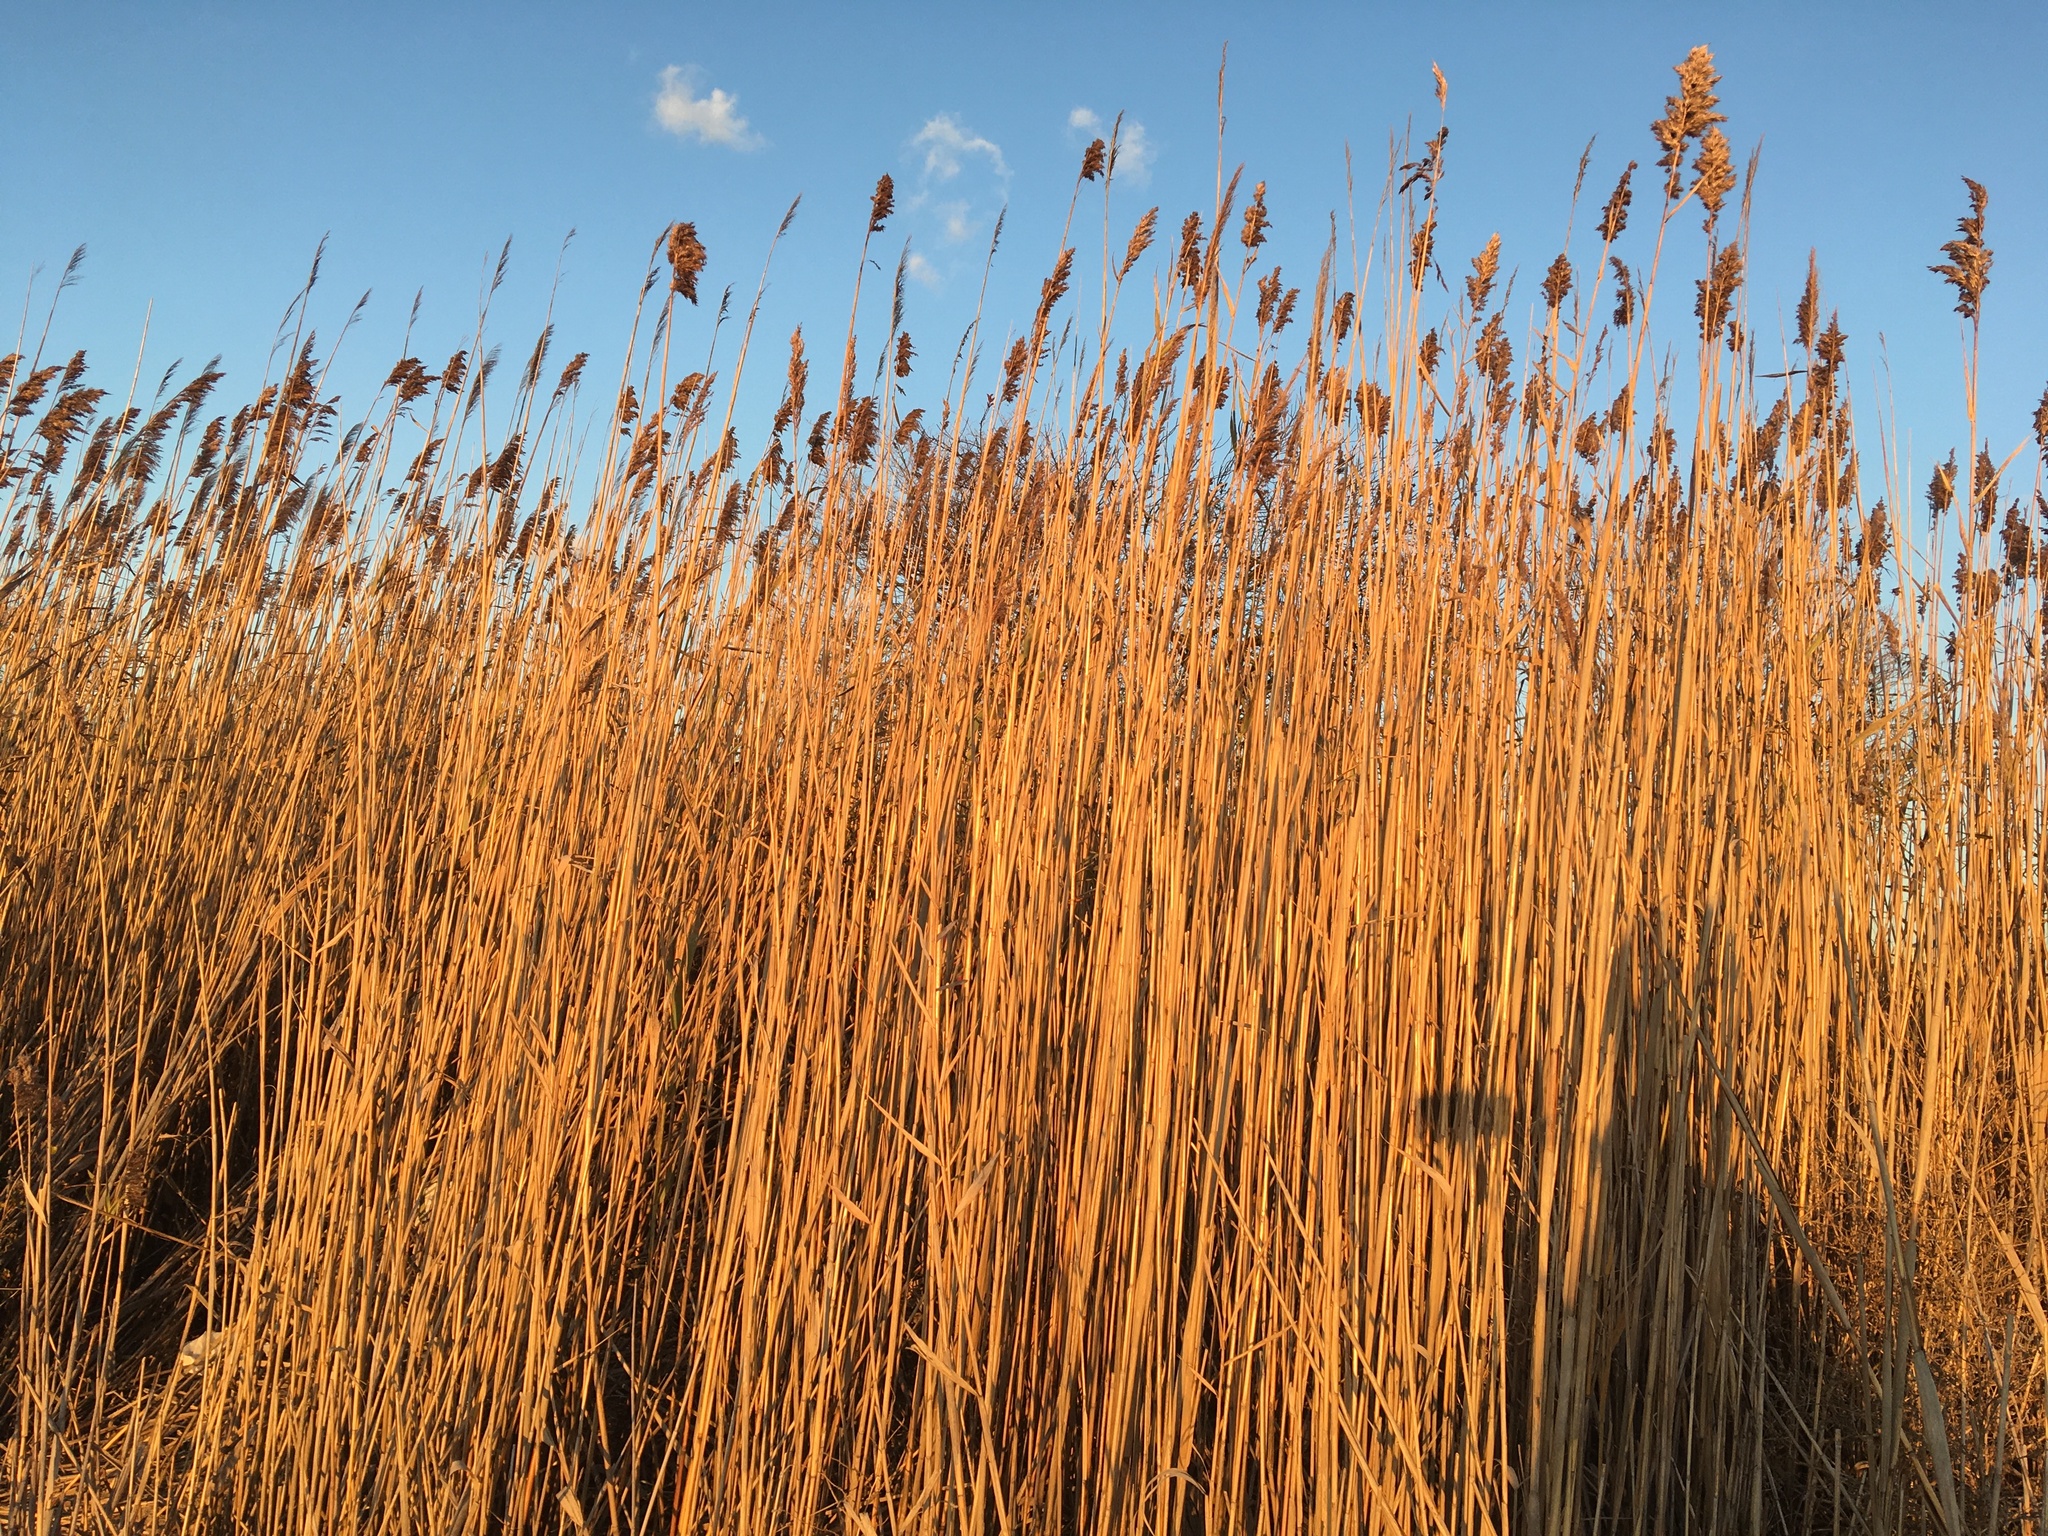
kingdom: Plantae
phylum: Tracheophyta
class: Liliopsida
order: Poales
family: Poaceae
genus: Phragmites
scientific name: Phragmites australis
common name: Common reed
